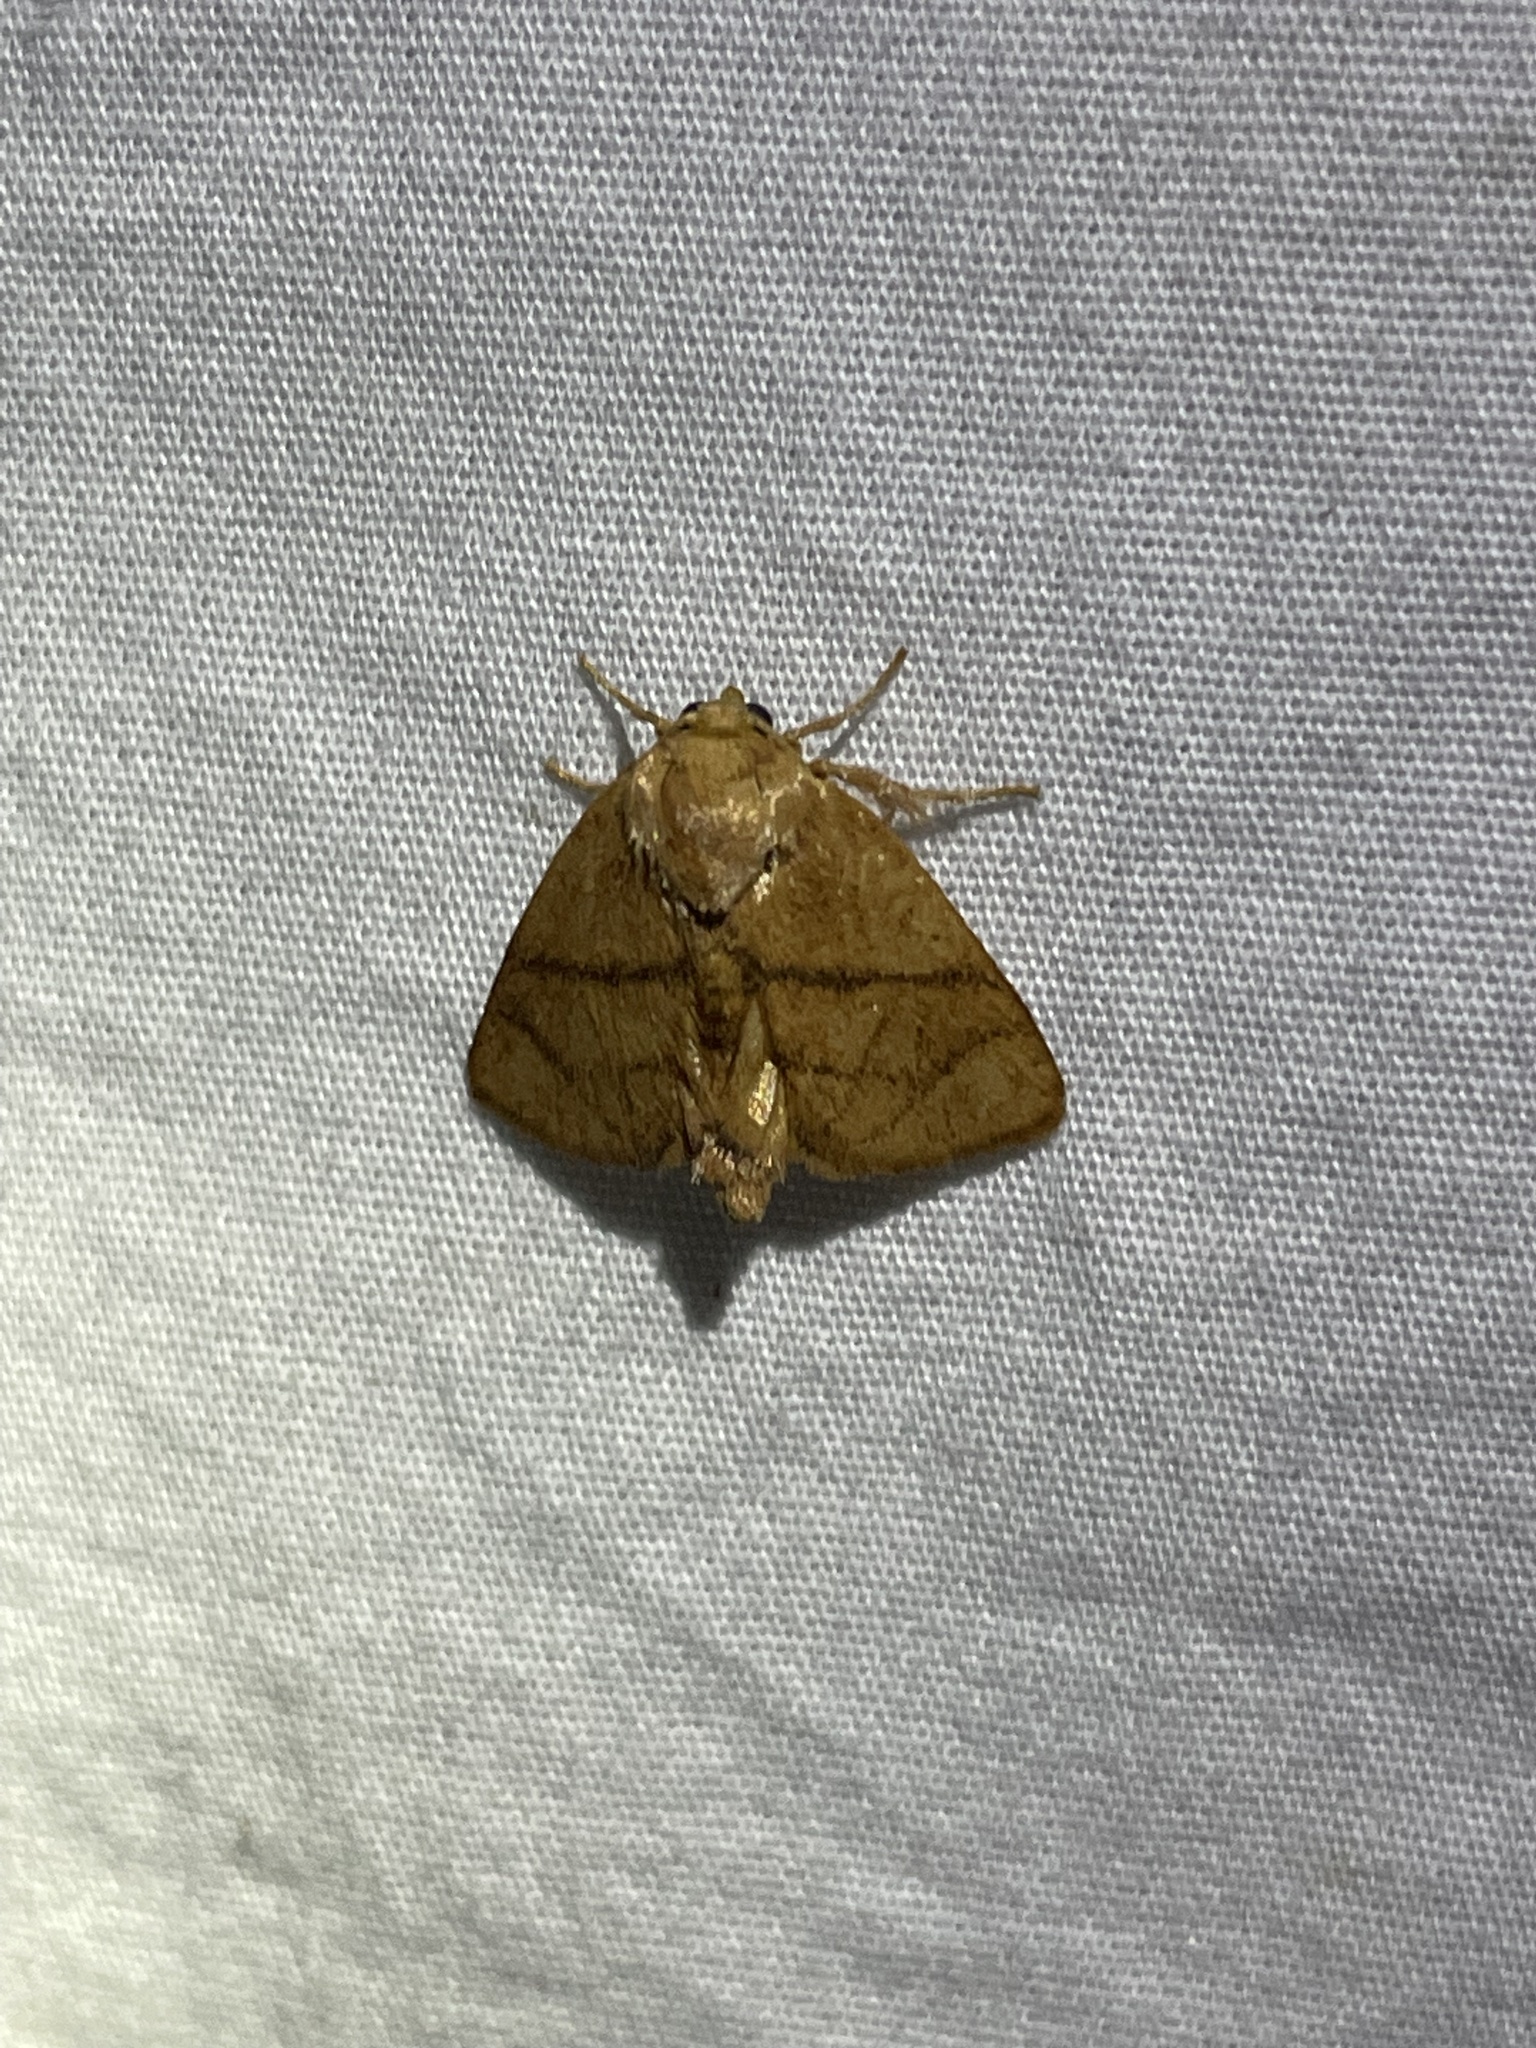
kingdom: Animalia
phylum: Arthropoda
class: Insecta
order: Lepidoptera
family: Limacodidae
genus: Apoda
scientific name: Apoda y-inversa
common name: Yellow-collared slug moth
